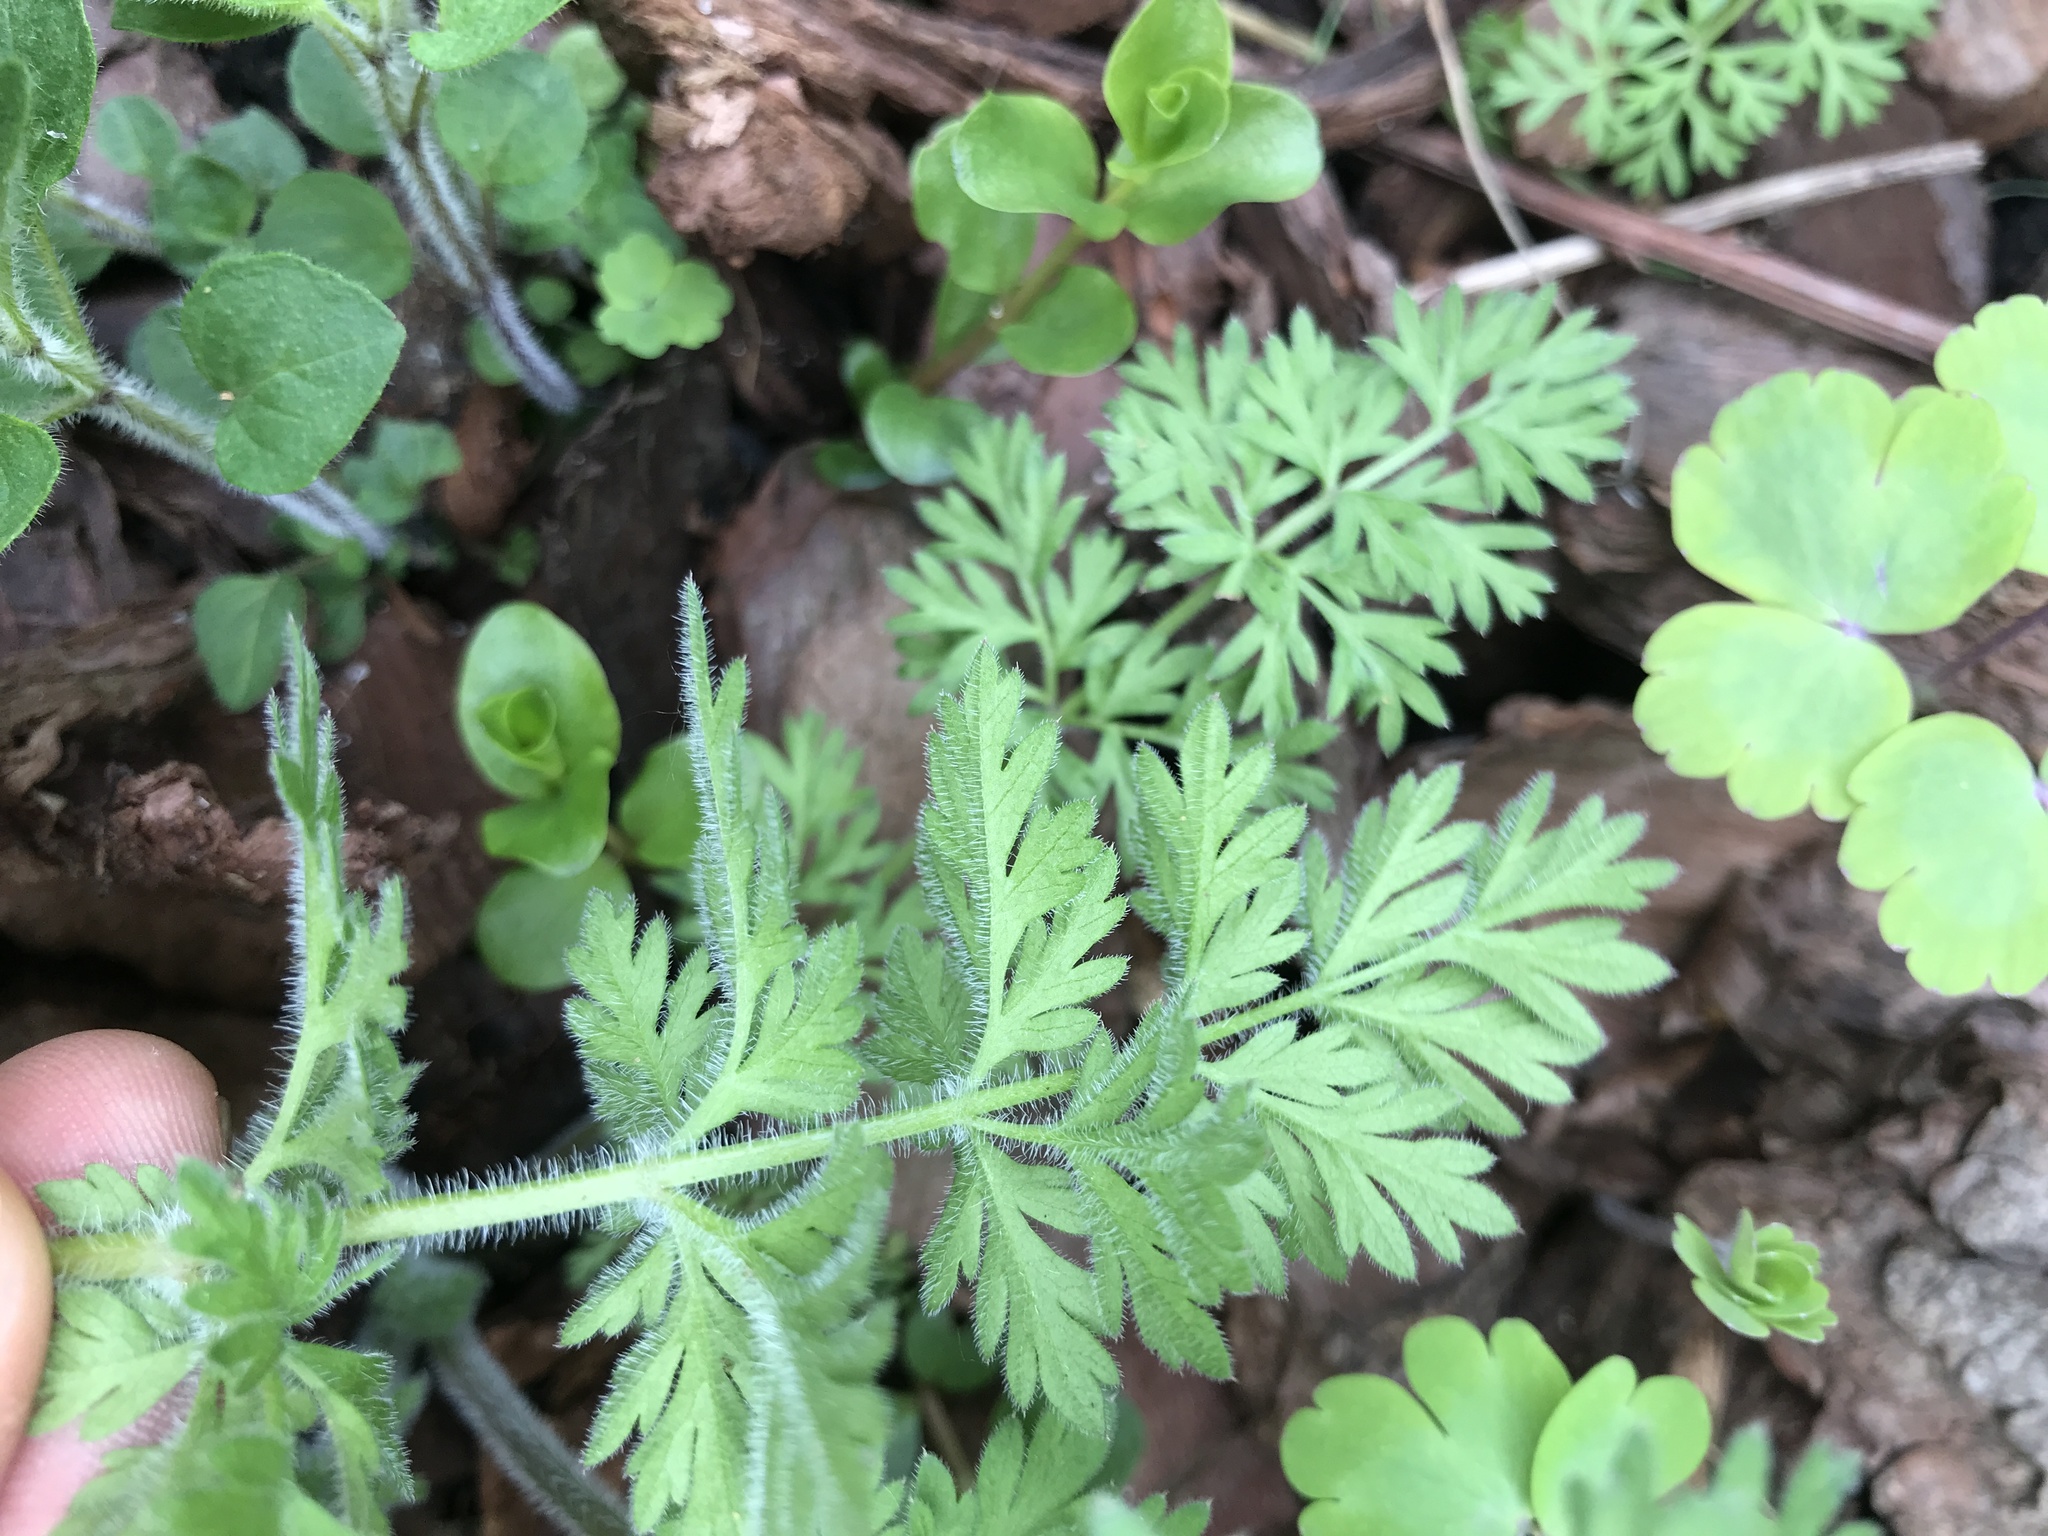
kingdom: Plantae
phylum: Tracheophyta
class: Magnoliopsida
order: Apiales
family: Apiaceae
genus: Daucus
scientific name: Daucus carota
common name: Wild carrot
